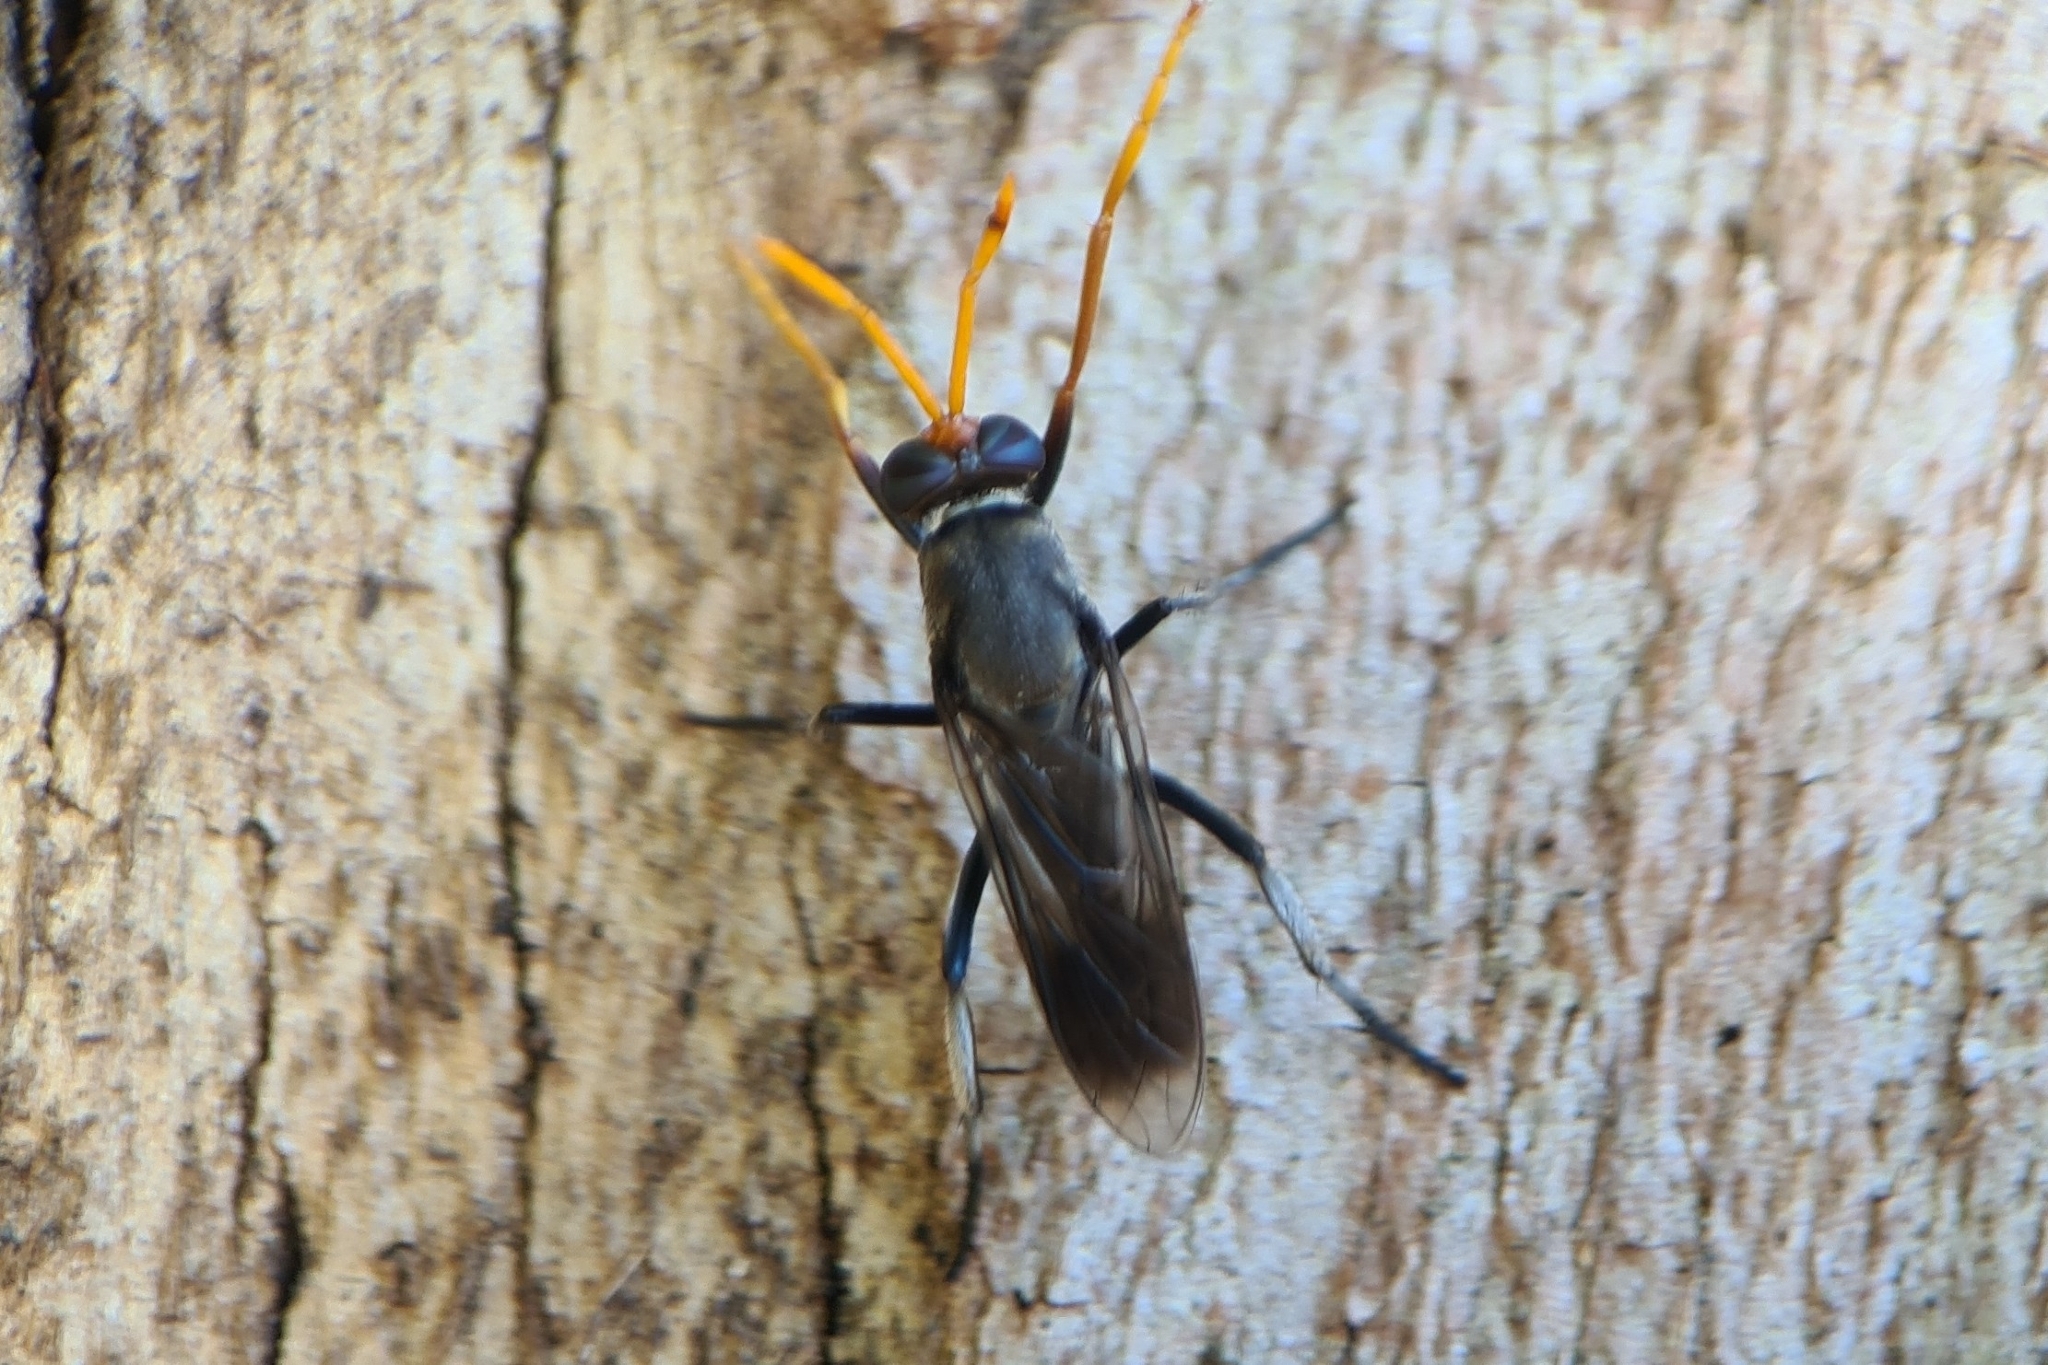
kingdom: Animalia
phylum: Arthropoda
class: Insecta
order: Diptera
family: Therevidae
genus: Phycus
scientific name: Phycus pallidicornis
